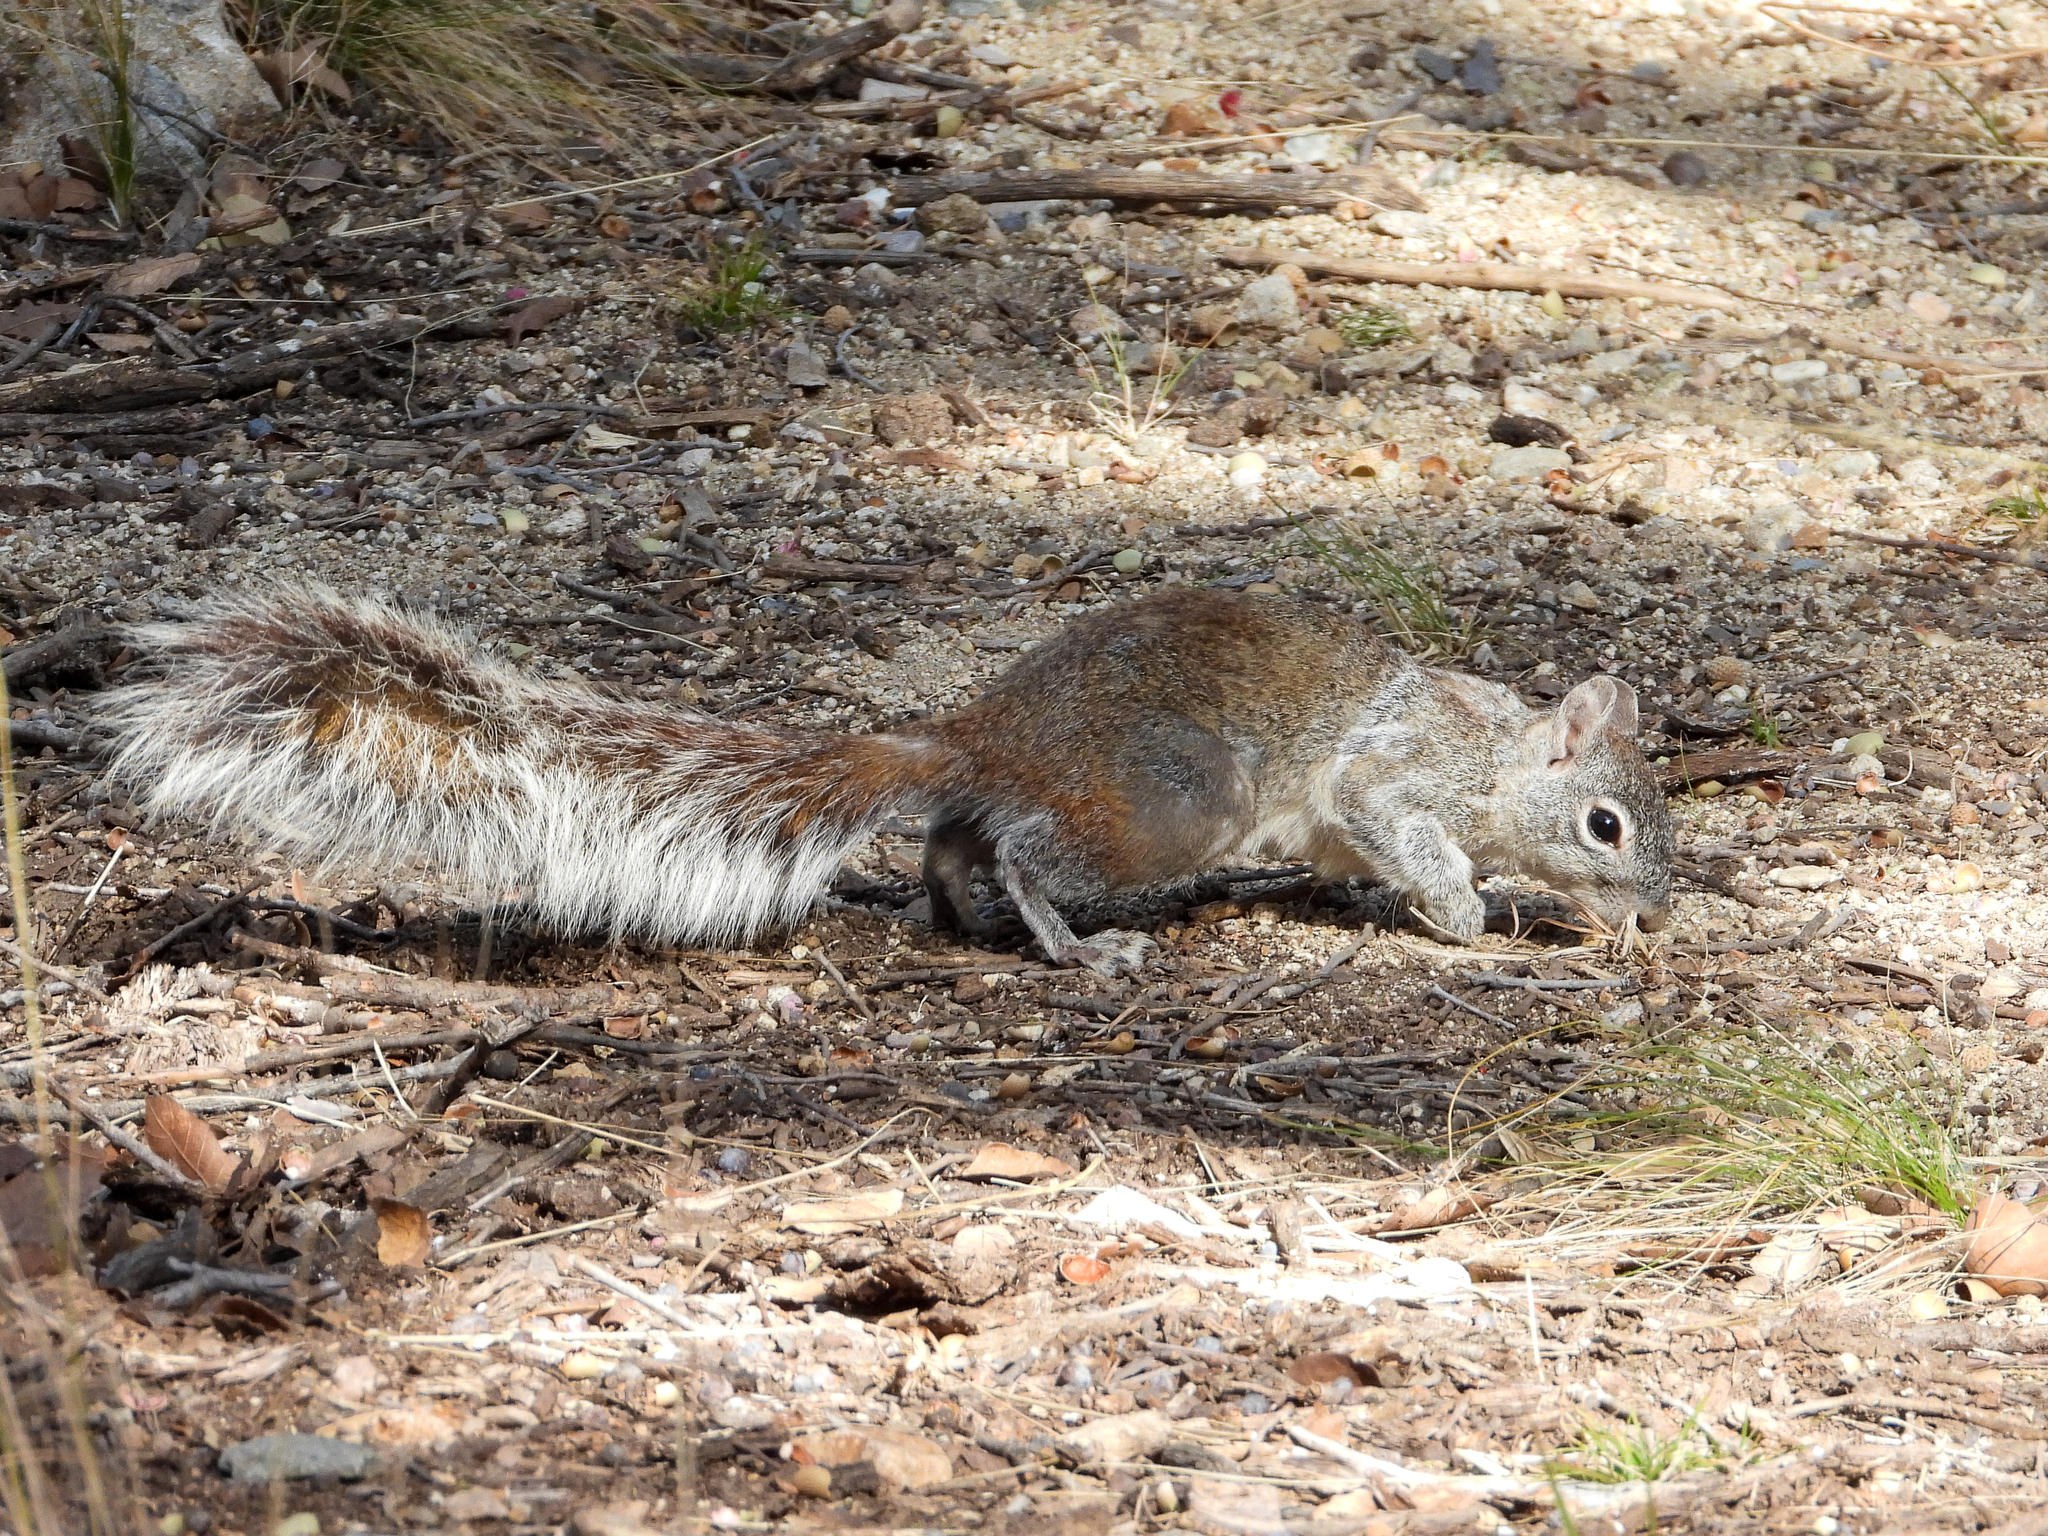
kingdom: Animalia
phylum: Chordata
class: Mammalia
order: Rodentia
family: Sciuridae
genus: Sciurus
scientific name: Sciurus arizonensis
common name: Arizona gray squirrel
